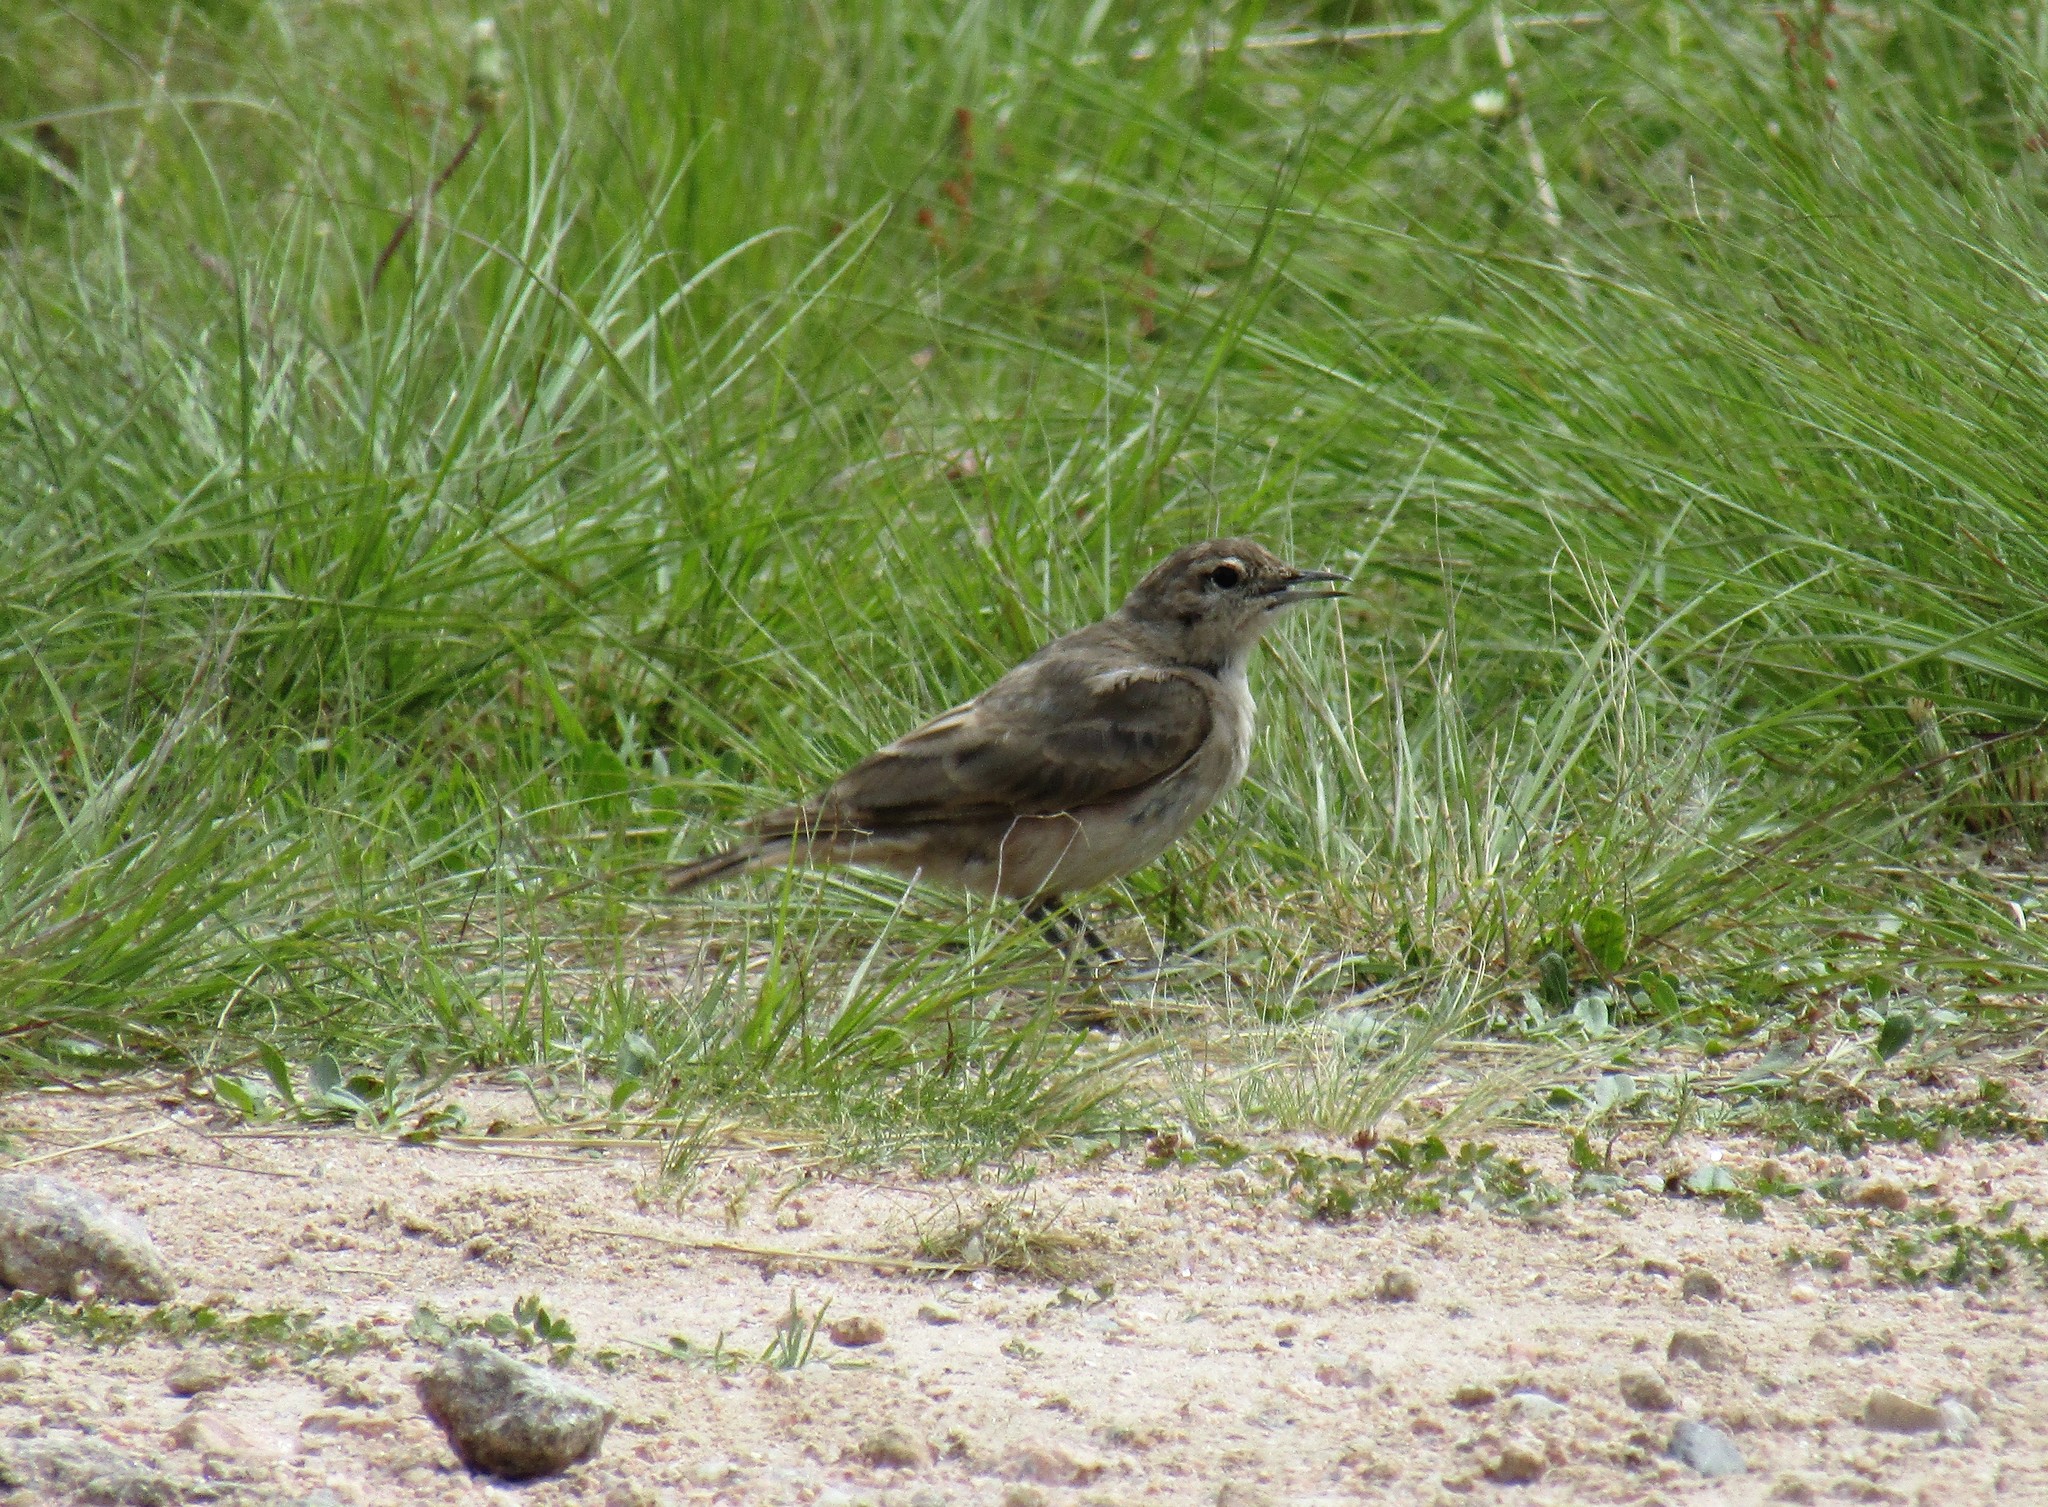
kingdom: Animalia
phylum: Chordata
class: Aves
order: Passeriformes
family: Passerellidae
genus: Zonotrichia
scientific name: Zonotrichia capensis
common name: Rufous-collared sparrow
